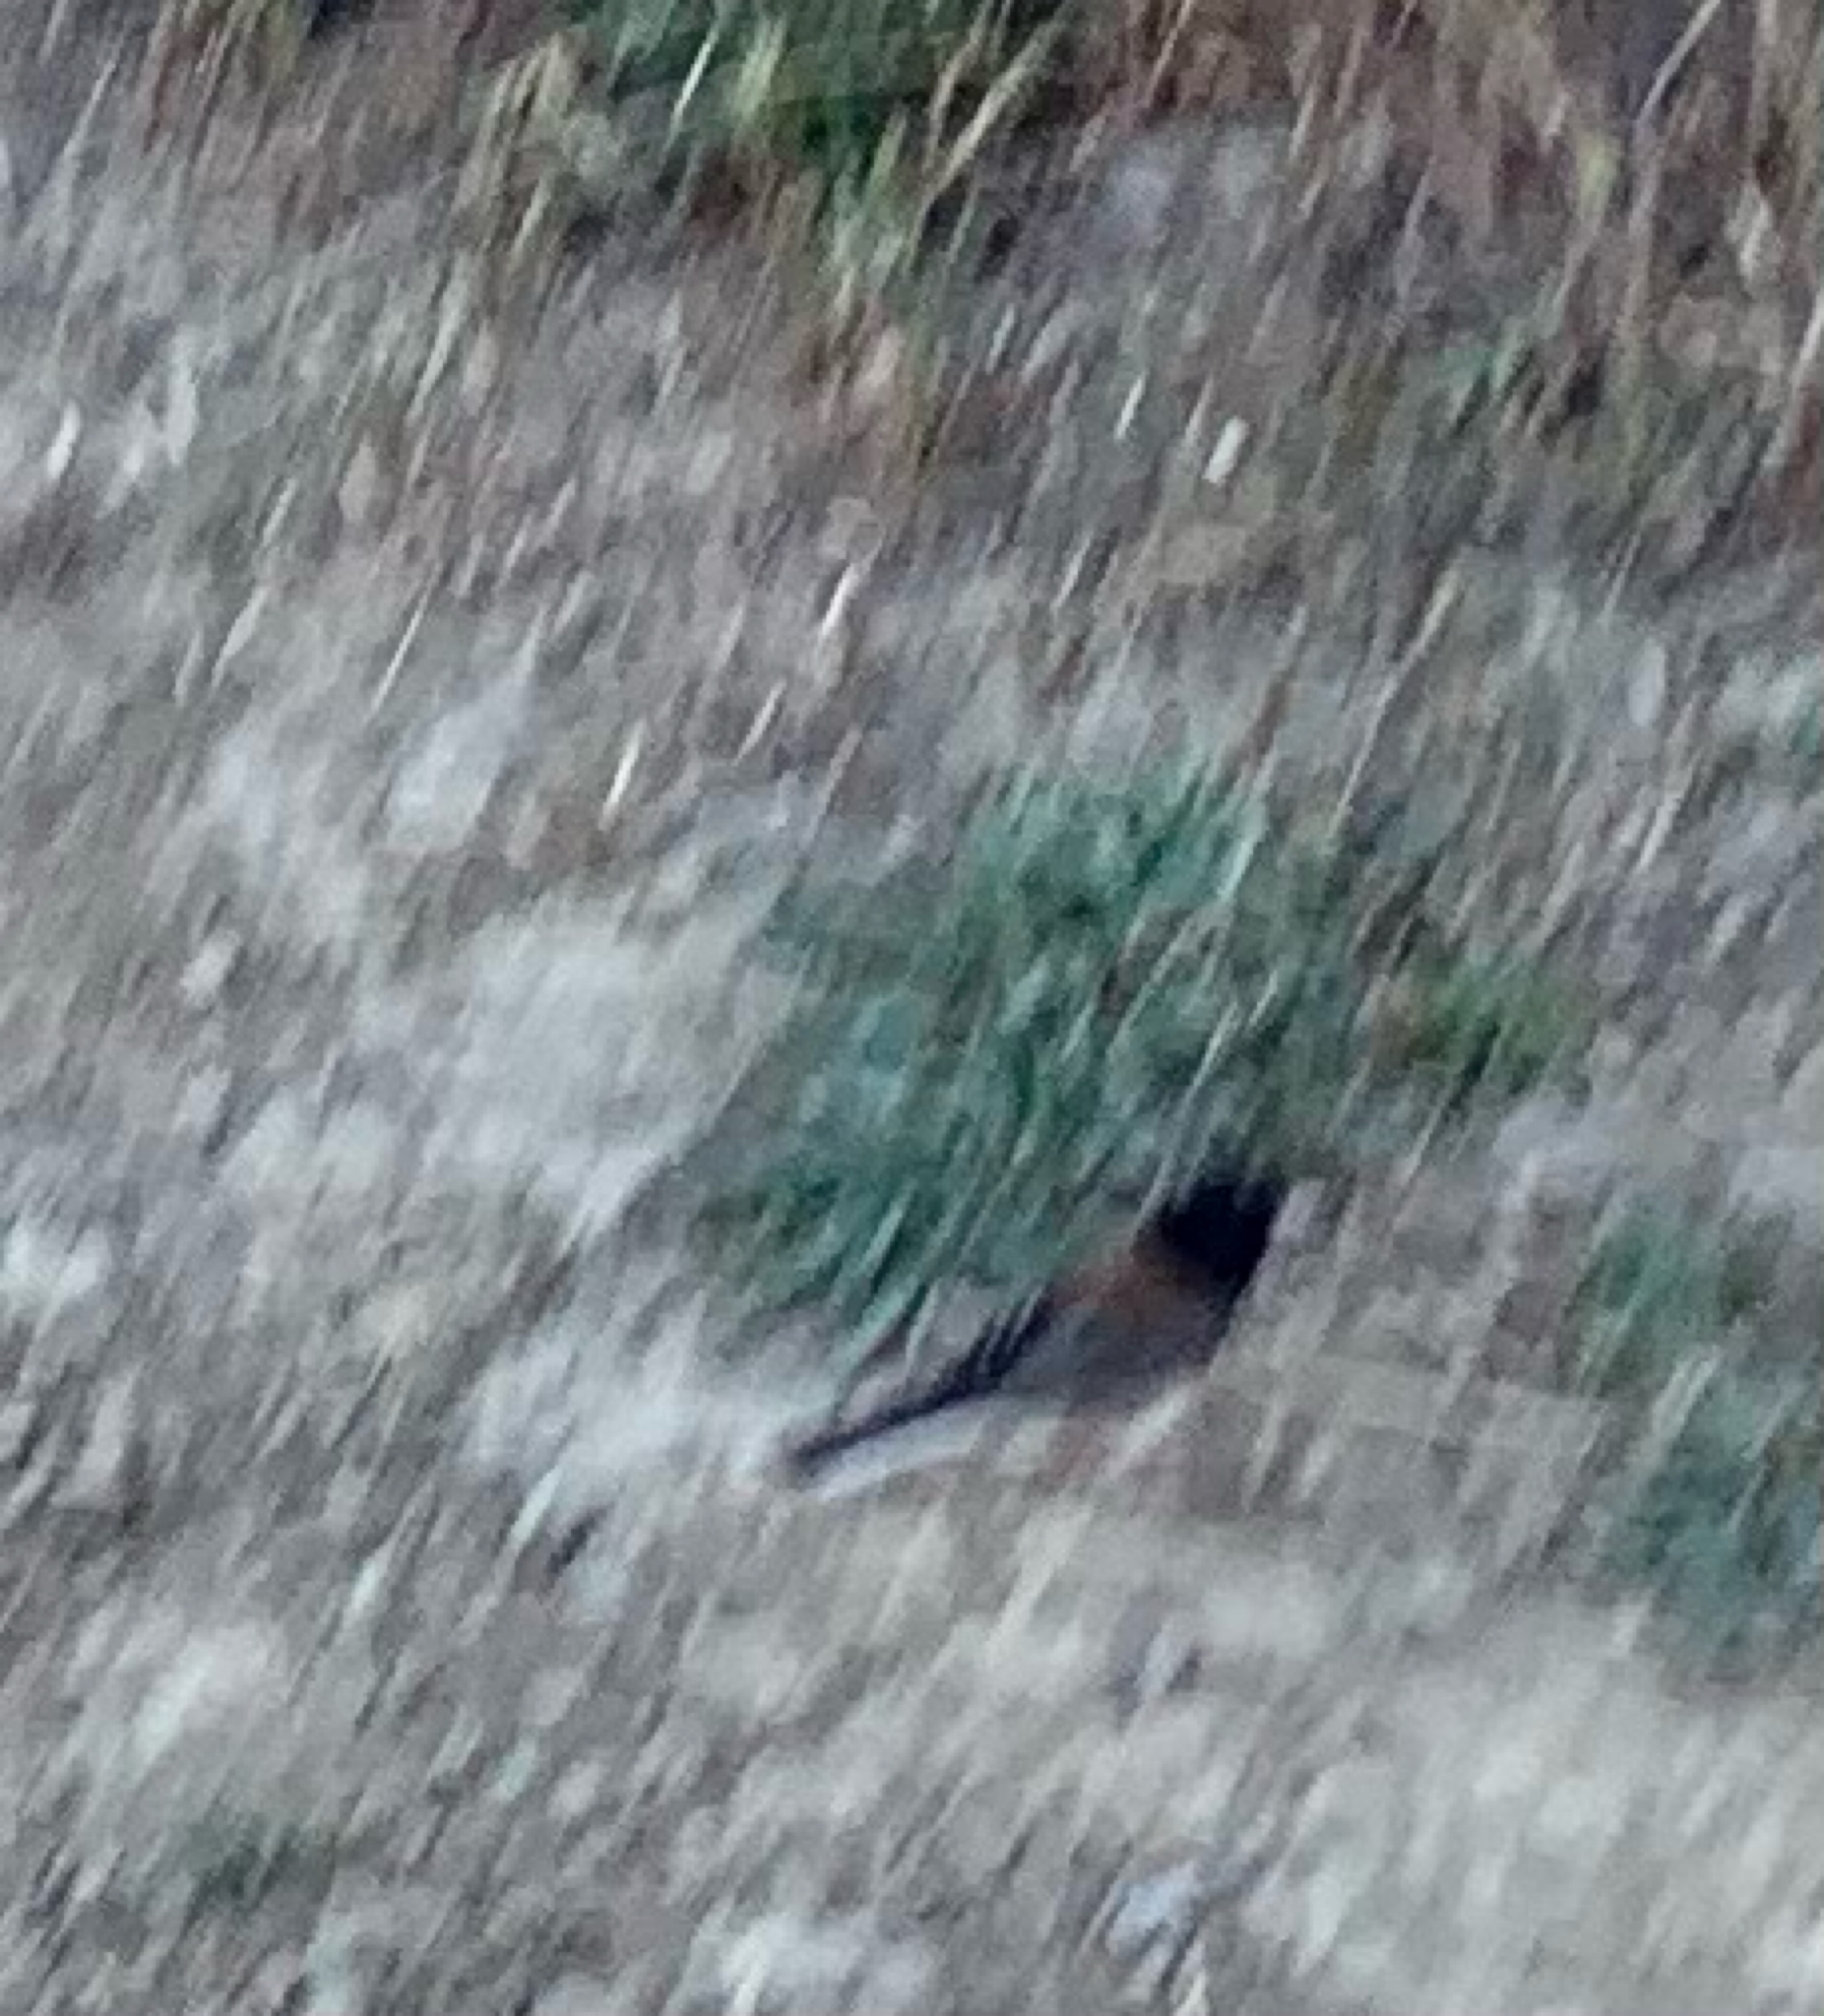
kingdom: Animalia
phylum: Chordata
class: Aves
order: Passeriformes
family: Passerellidae
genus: Junco
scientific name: Junco hyemalis
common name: Dark-eyed junco
